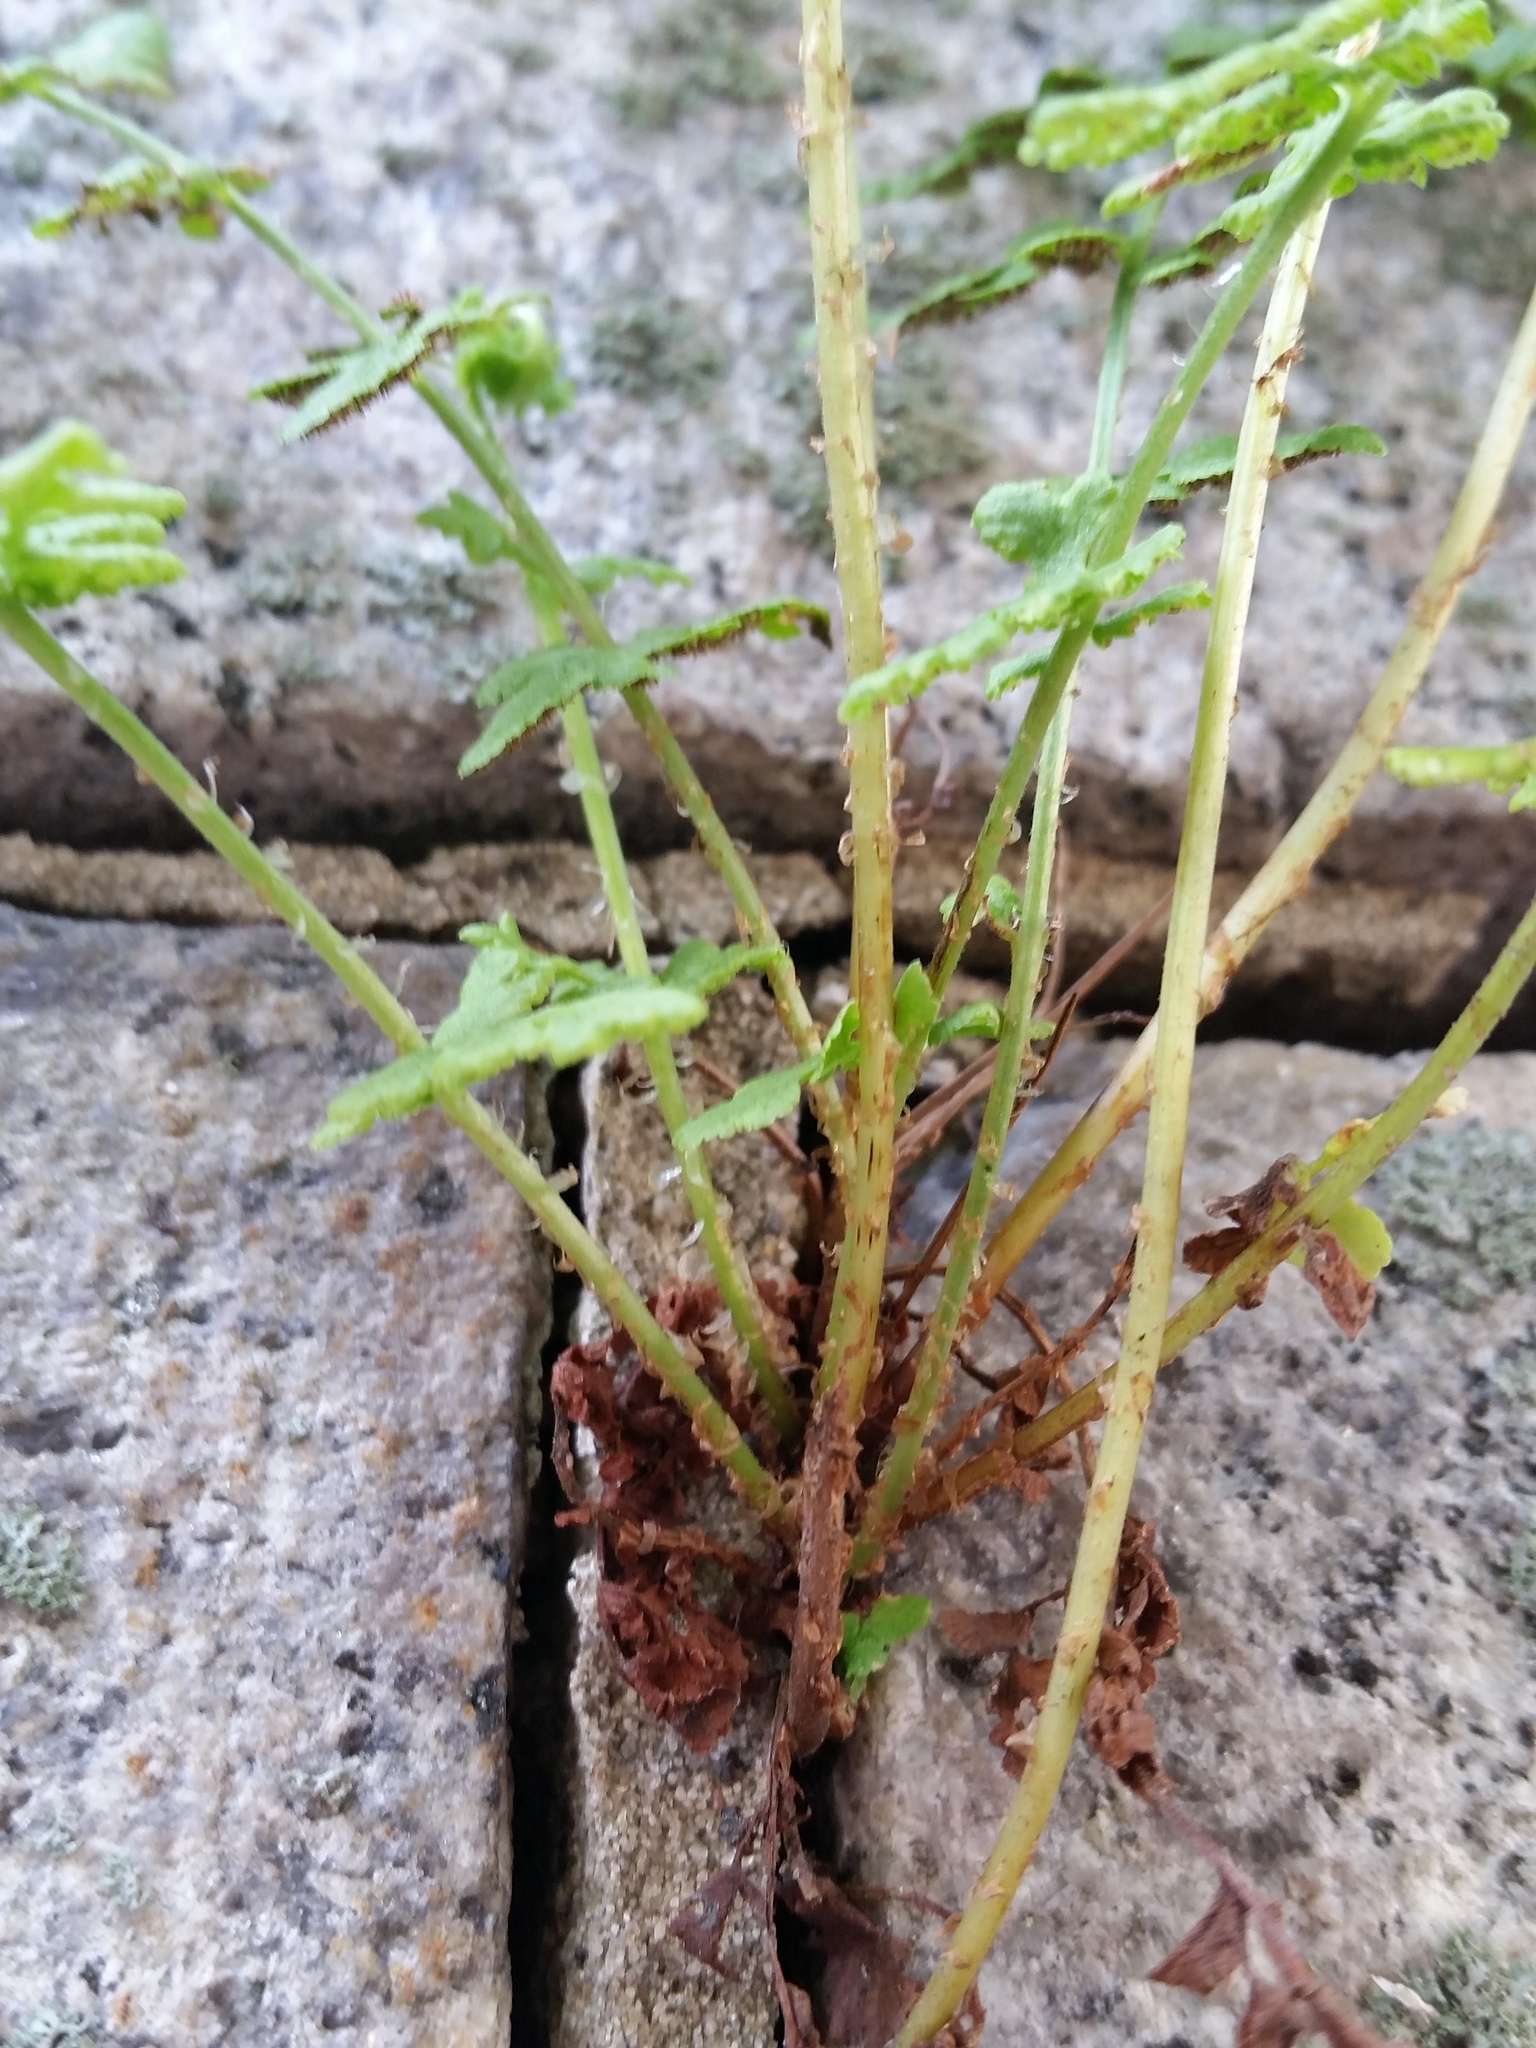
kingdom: Plantae
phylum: Tracheophyta
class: Polypodiopsida
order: Polypodiales
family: Woodsiaceae
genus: Physematium
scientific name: Physematium obtusum
